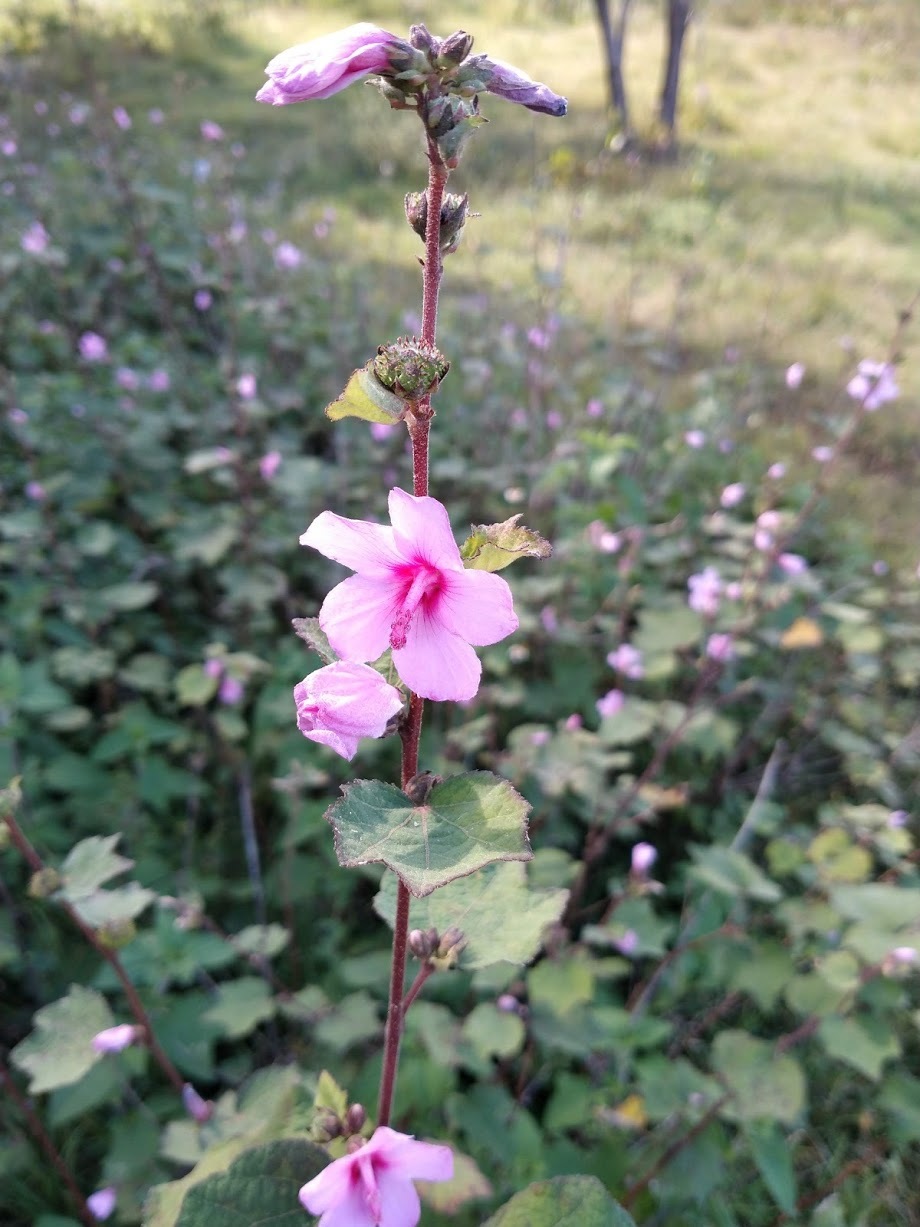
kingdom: Plantae
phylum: Tracheophyta
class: Magnoliopsida
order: Malvales
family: Malvaceae
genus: Urena
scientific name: Urena lobata
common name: Caesarweed
